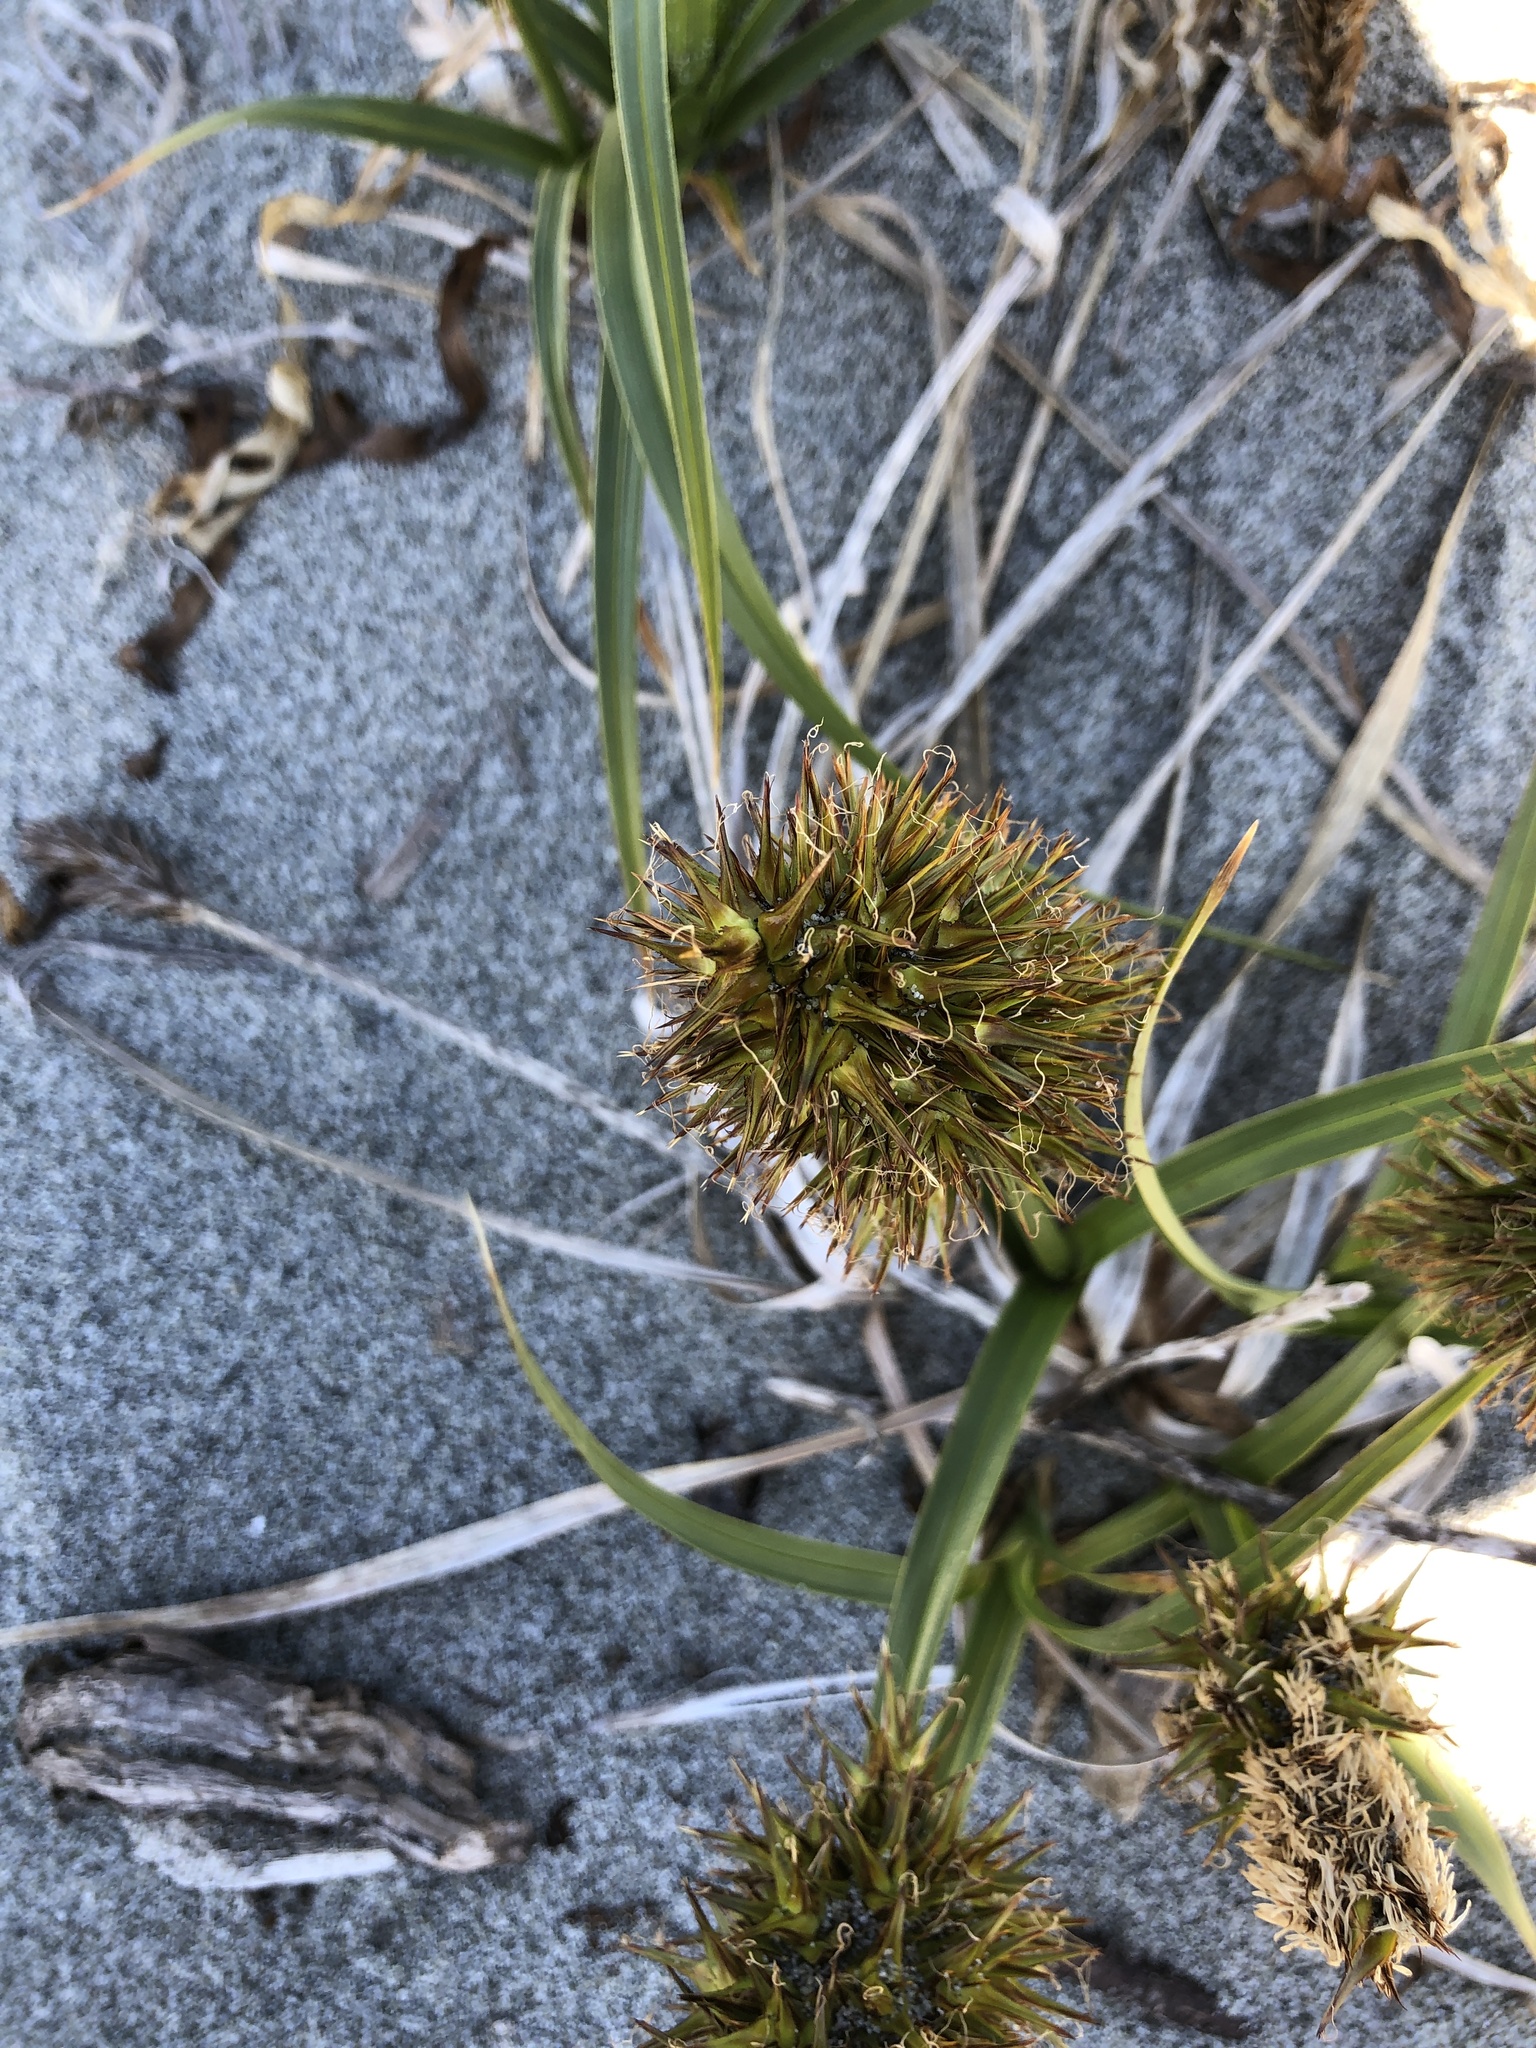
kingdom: Plantae
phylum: Tracheophyta
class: Liliopsida
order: Poales
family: Cyperaceae
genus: Carex
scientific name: Carex macrocephala
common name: Large-head sedge
